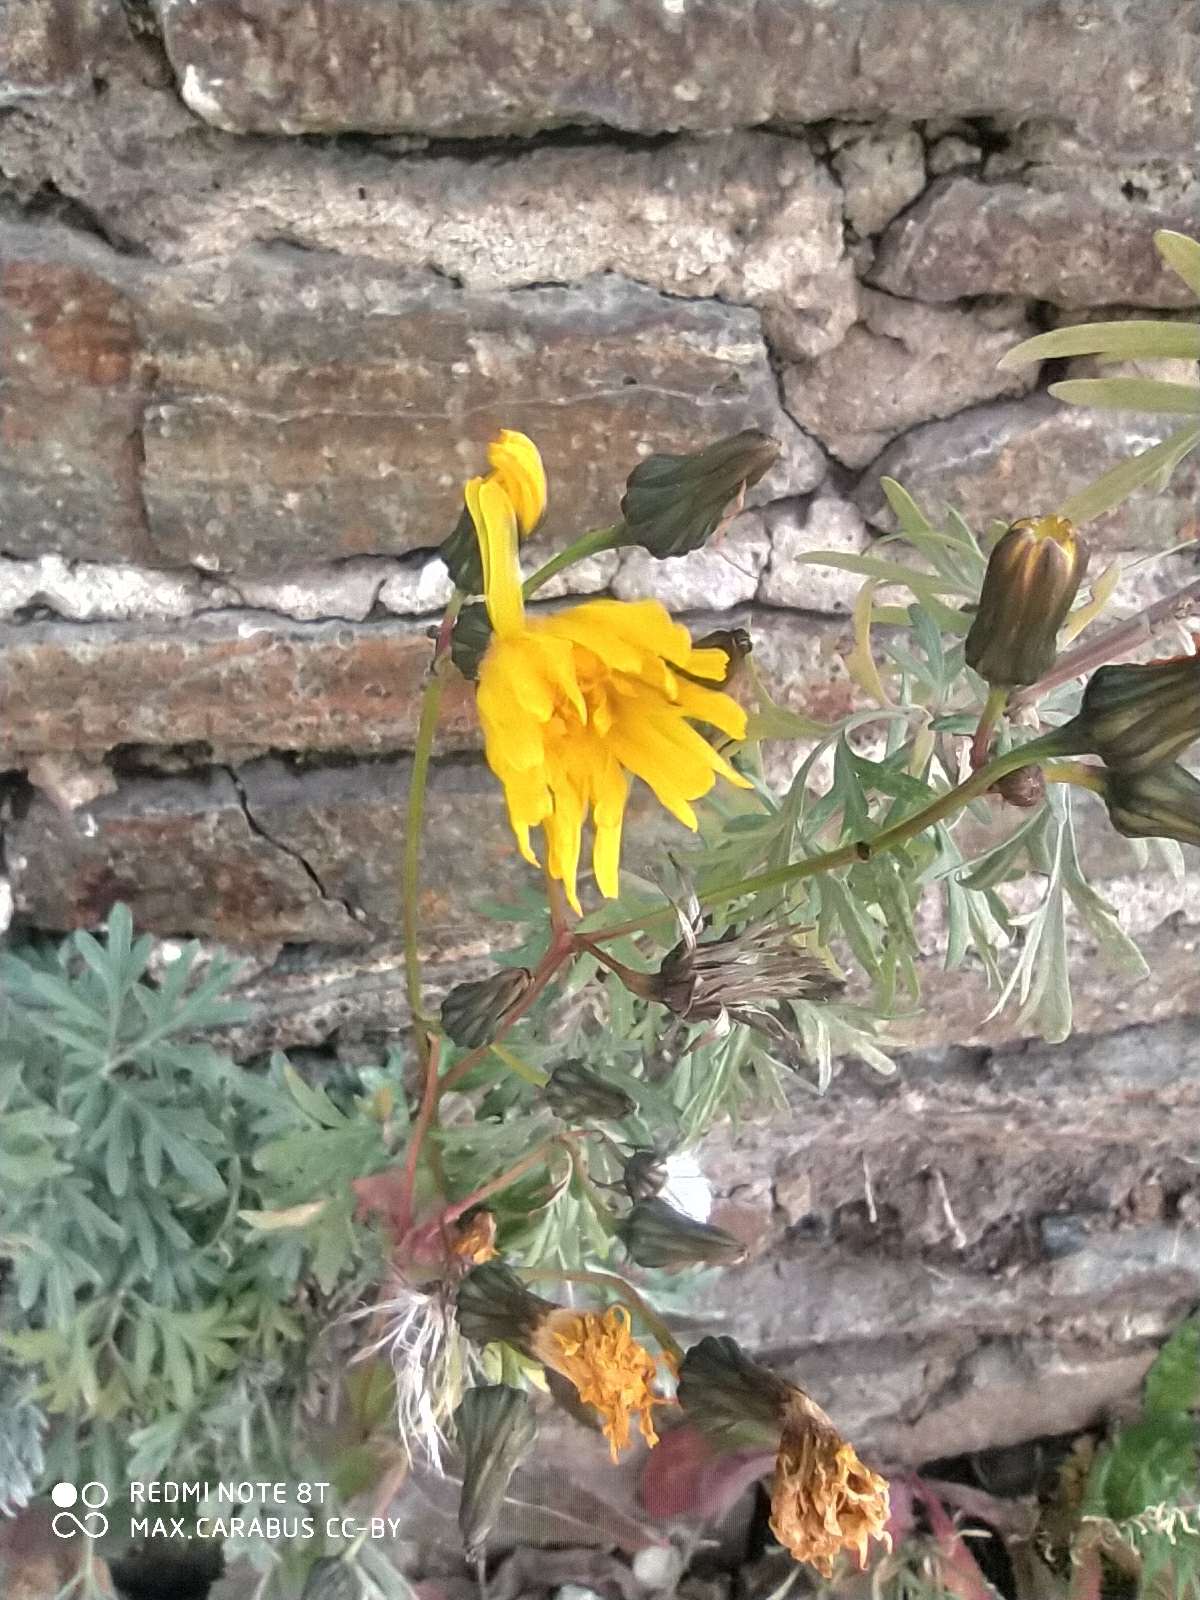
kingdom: Plantae
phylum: Tracheophyta
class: Magnoliopsida
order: Asterales
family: Asteraceae
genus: Sonchus
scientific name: Sonchus asper
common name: Prickly sow-thistle
